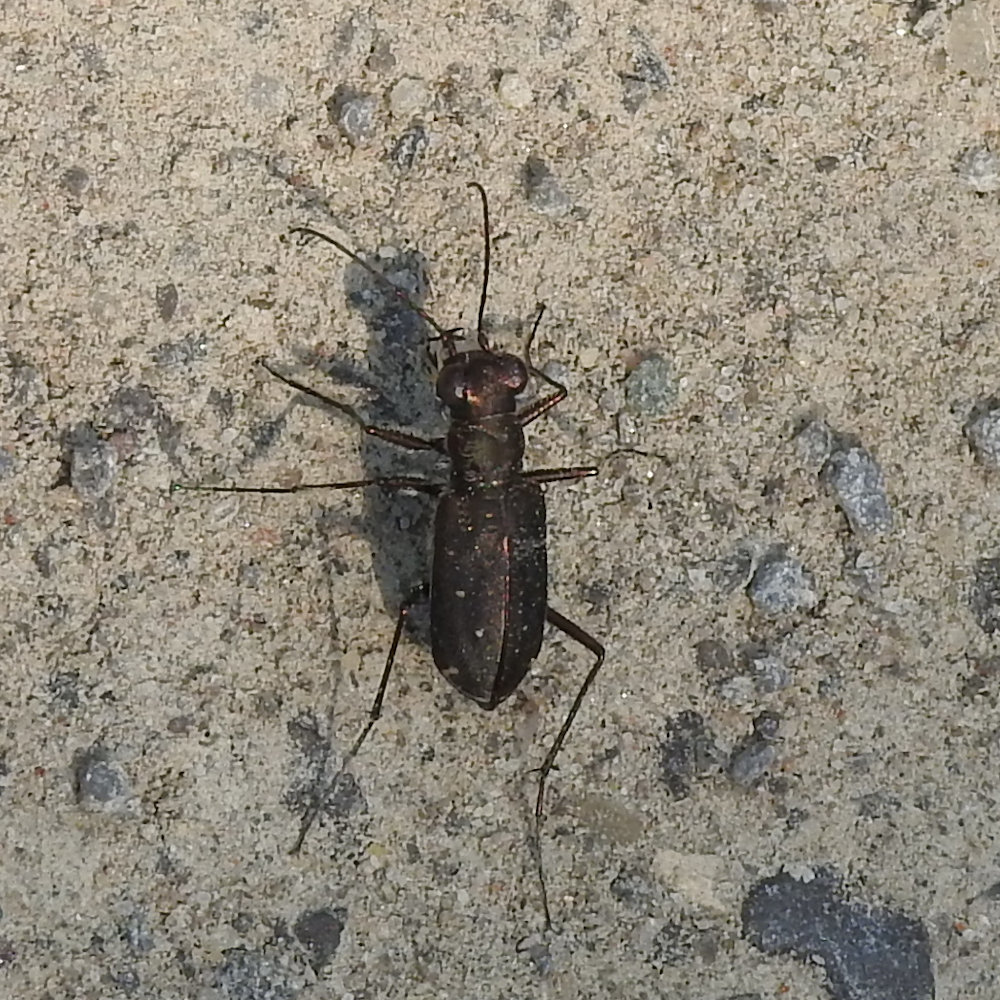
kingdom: Animalia
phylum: Arthropoda
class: Insecta
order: Coleoptera
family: Carabidae
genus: Cicindela
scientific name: Cicindela punctulata
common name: Punctured tiger beetle
